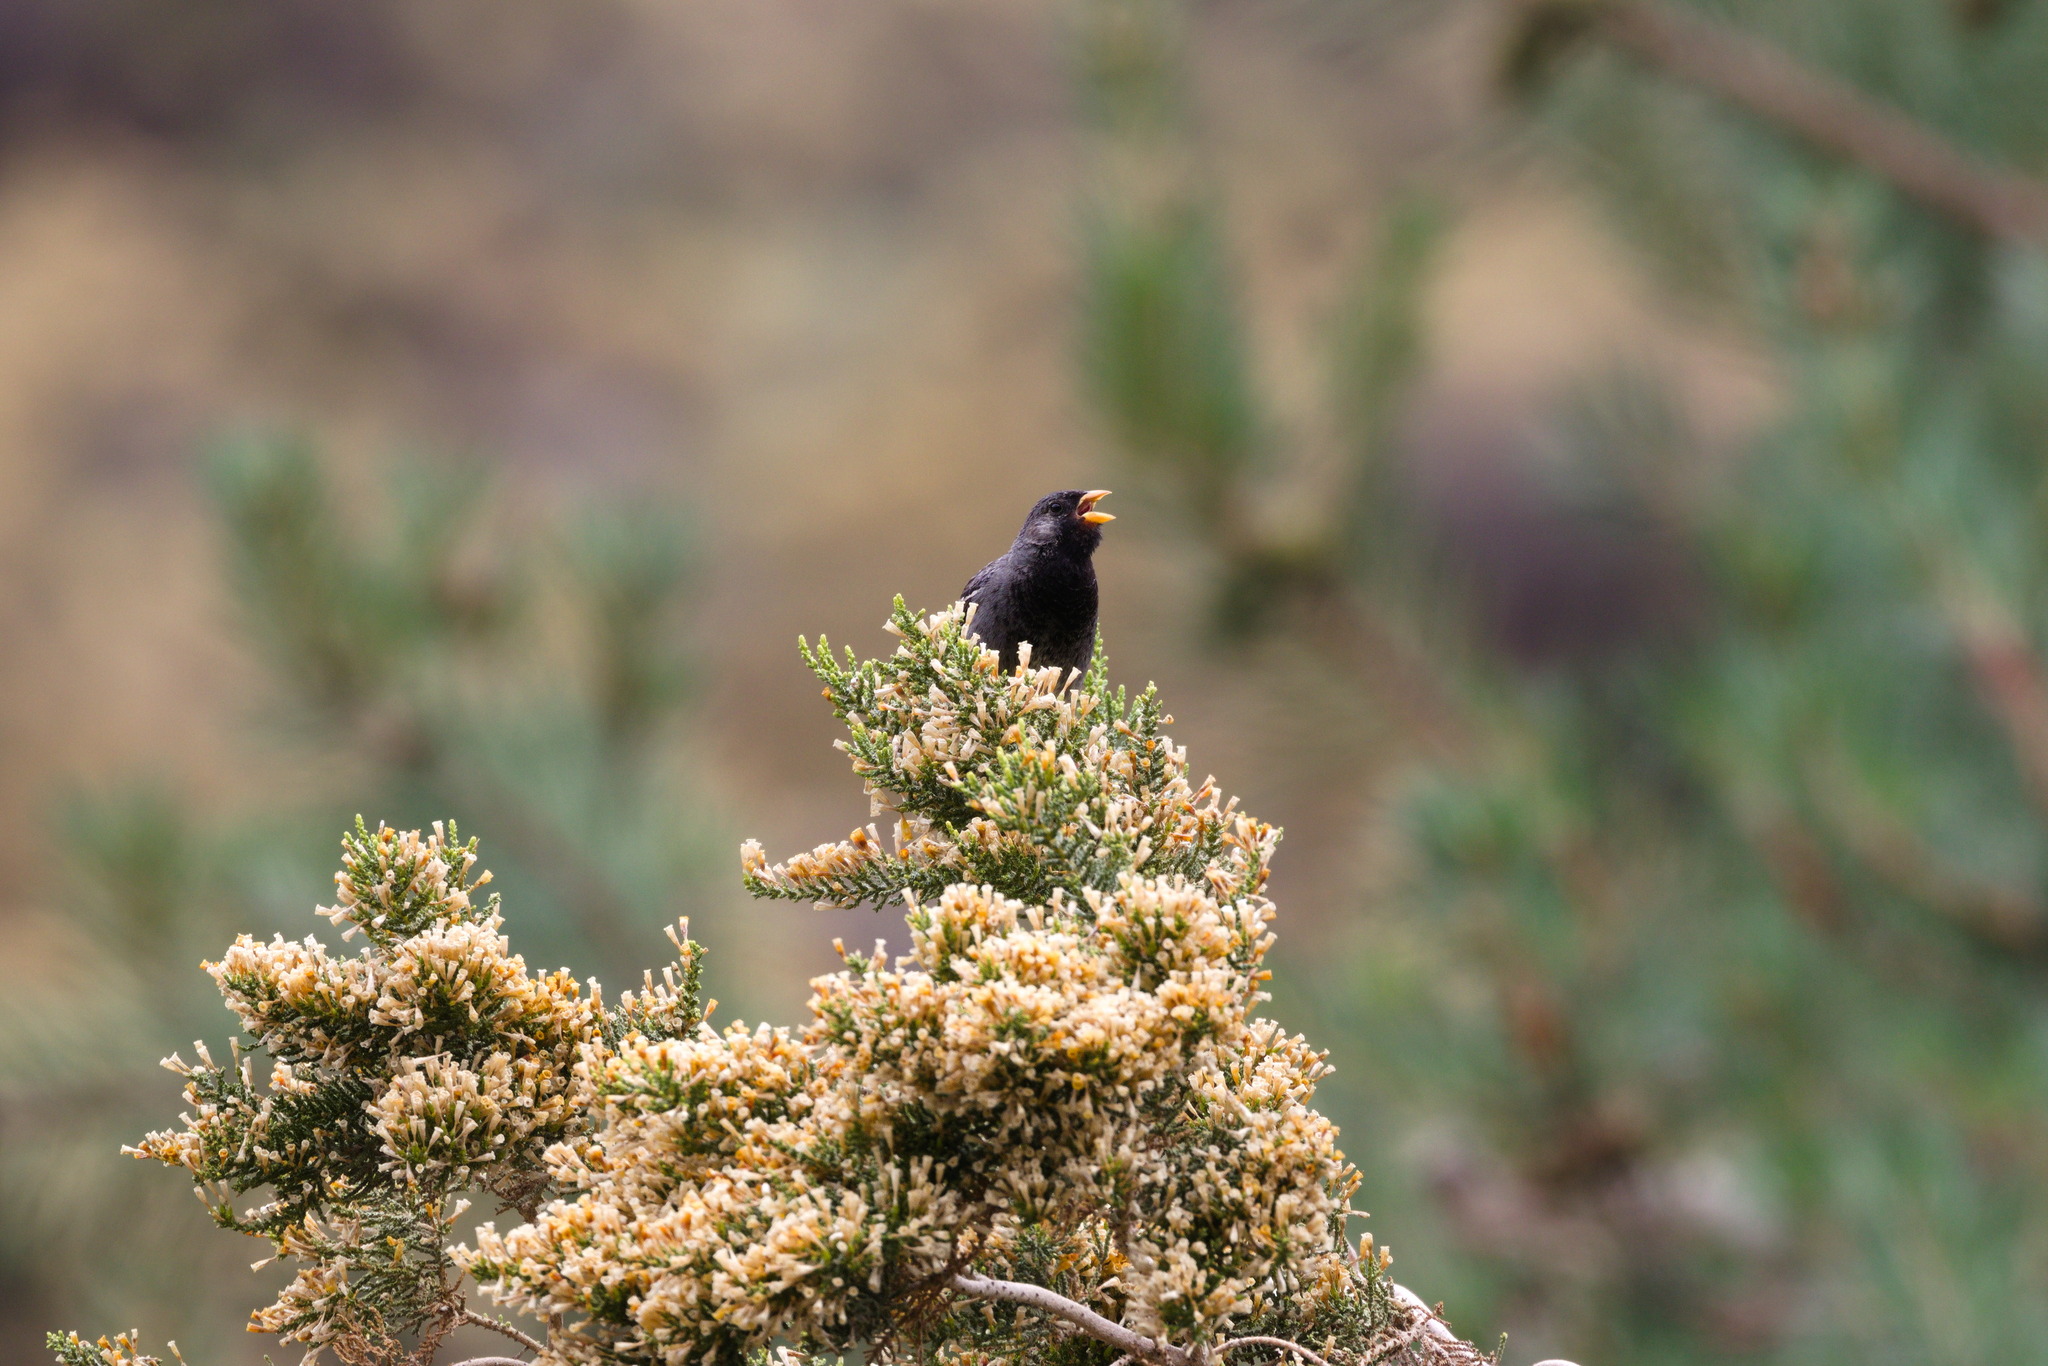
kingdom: Animalia
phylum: Chordata
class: Aves
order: Passeriformes
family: Thraupidae
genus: Rhopospina
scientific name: Rhopospina fruticeti
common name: Mourning sierra finch
